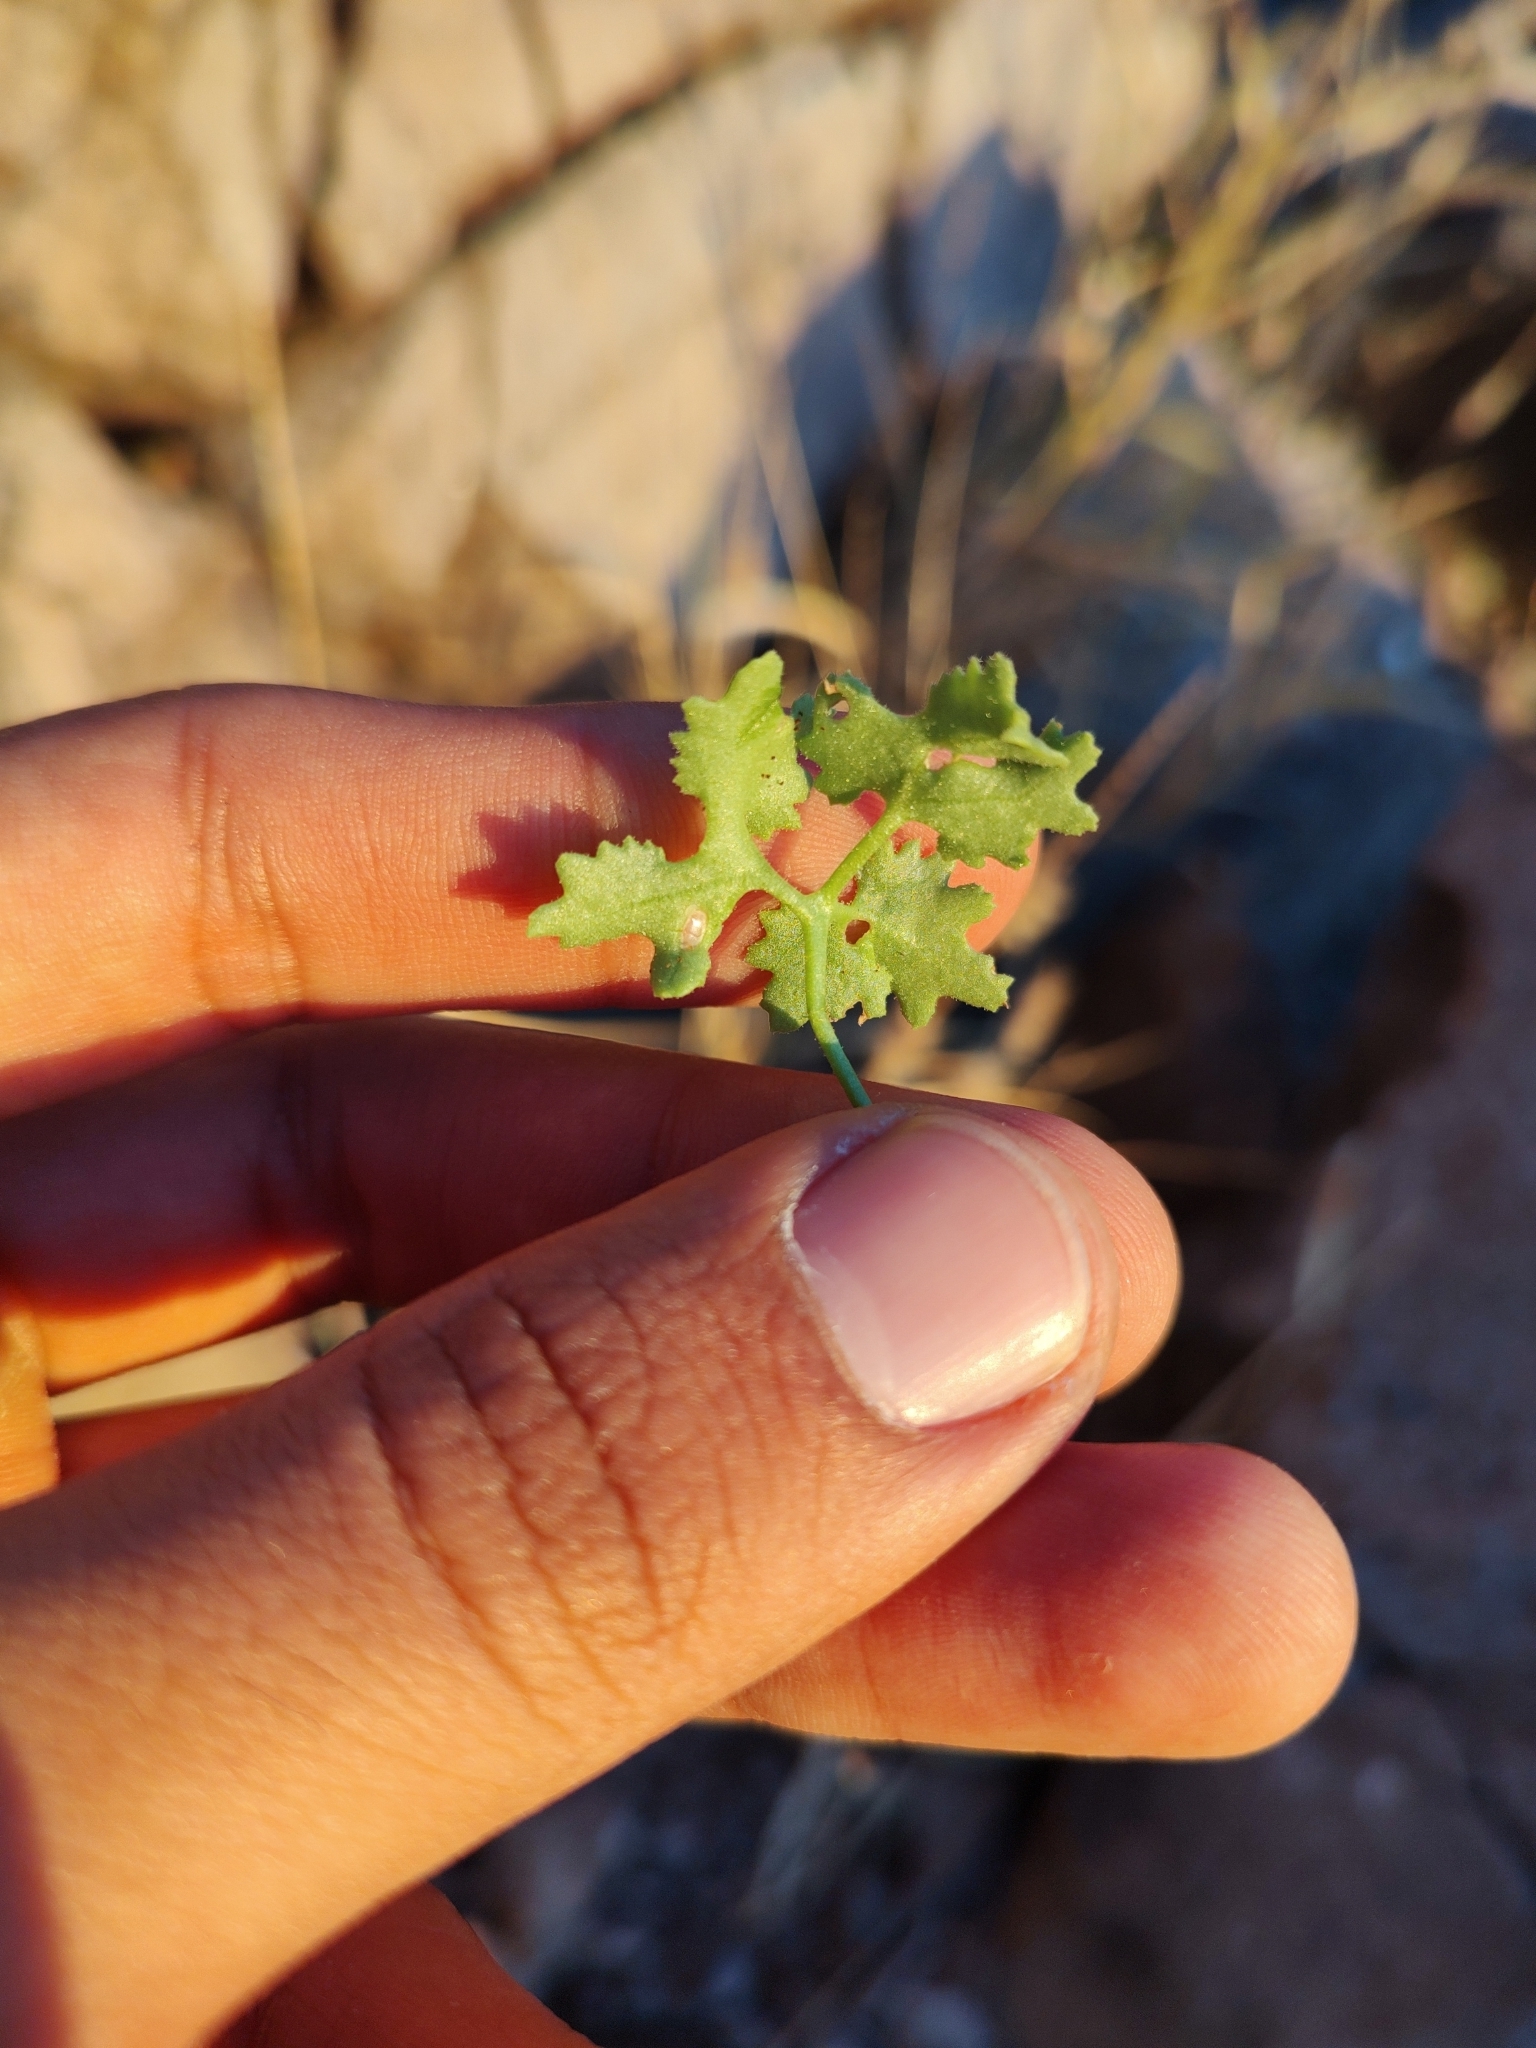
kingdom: Plantae
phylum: Tracheophyta
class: Magnoliopsida
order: Asterales
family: Asteraceae
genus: Hofmeisteria
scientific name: Hofmeisteria fasciculata
